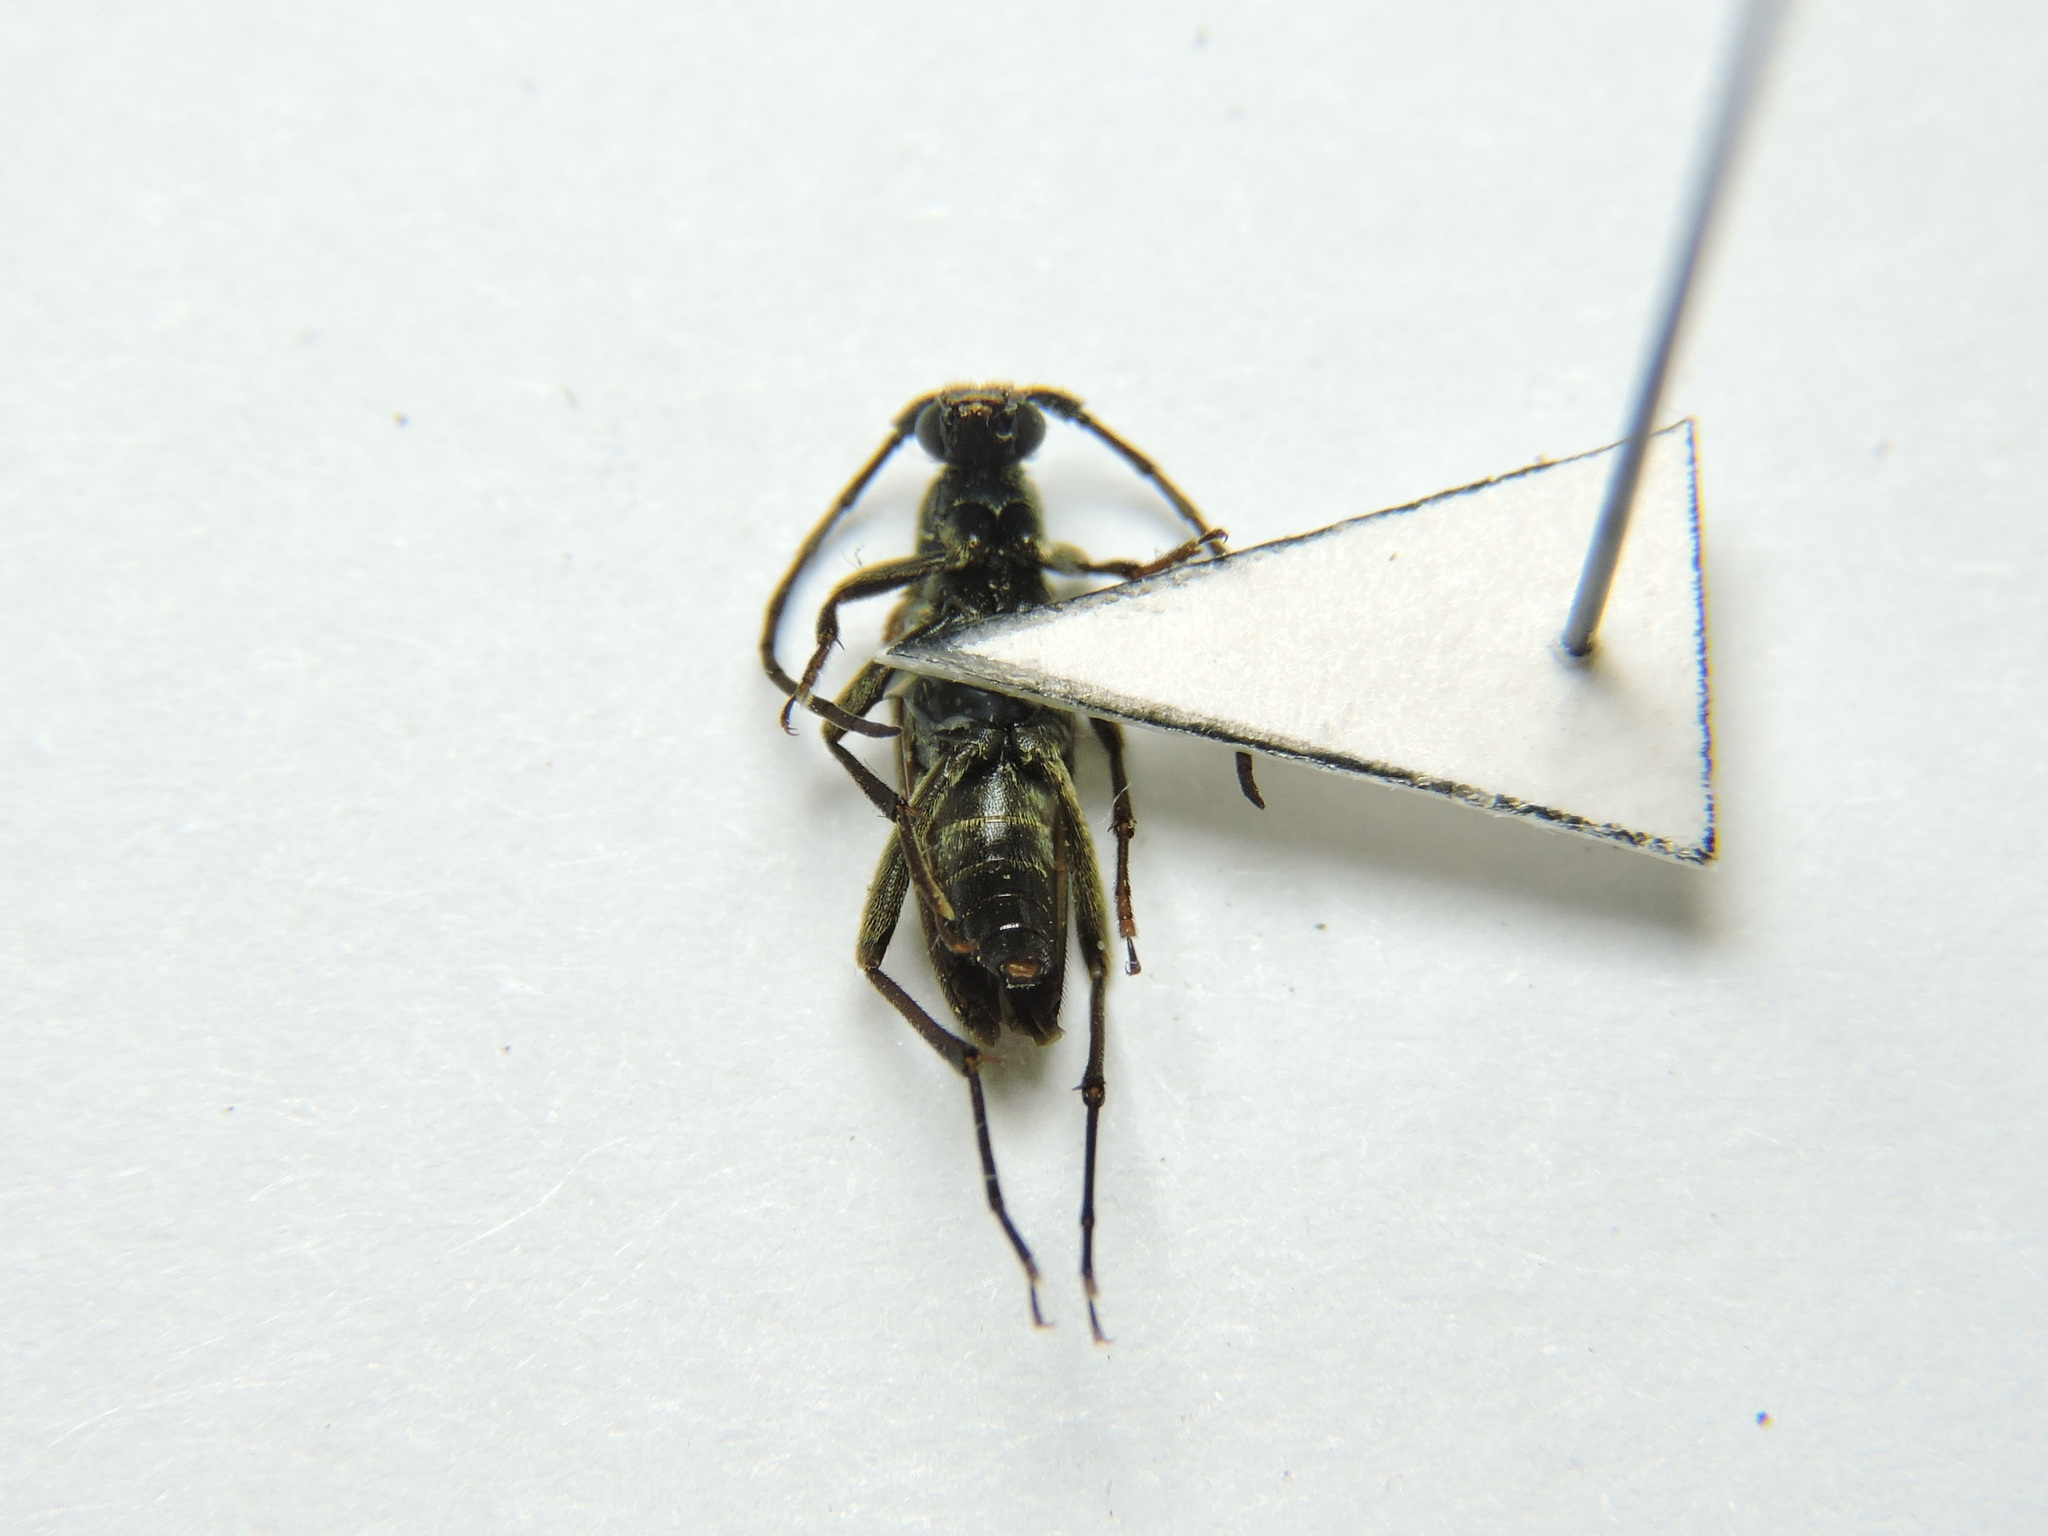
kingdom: Animalia
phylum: Arthropoda
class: Insecta
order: Coleoptera
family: Cerambycidae
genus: Stenurella
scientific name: Stenurella melanura
